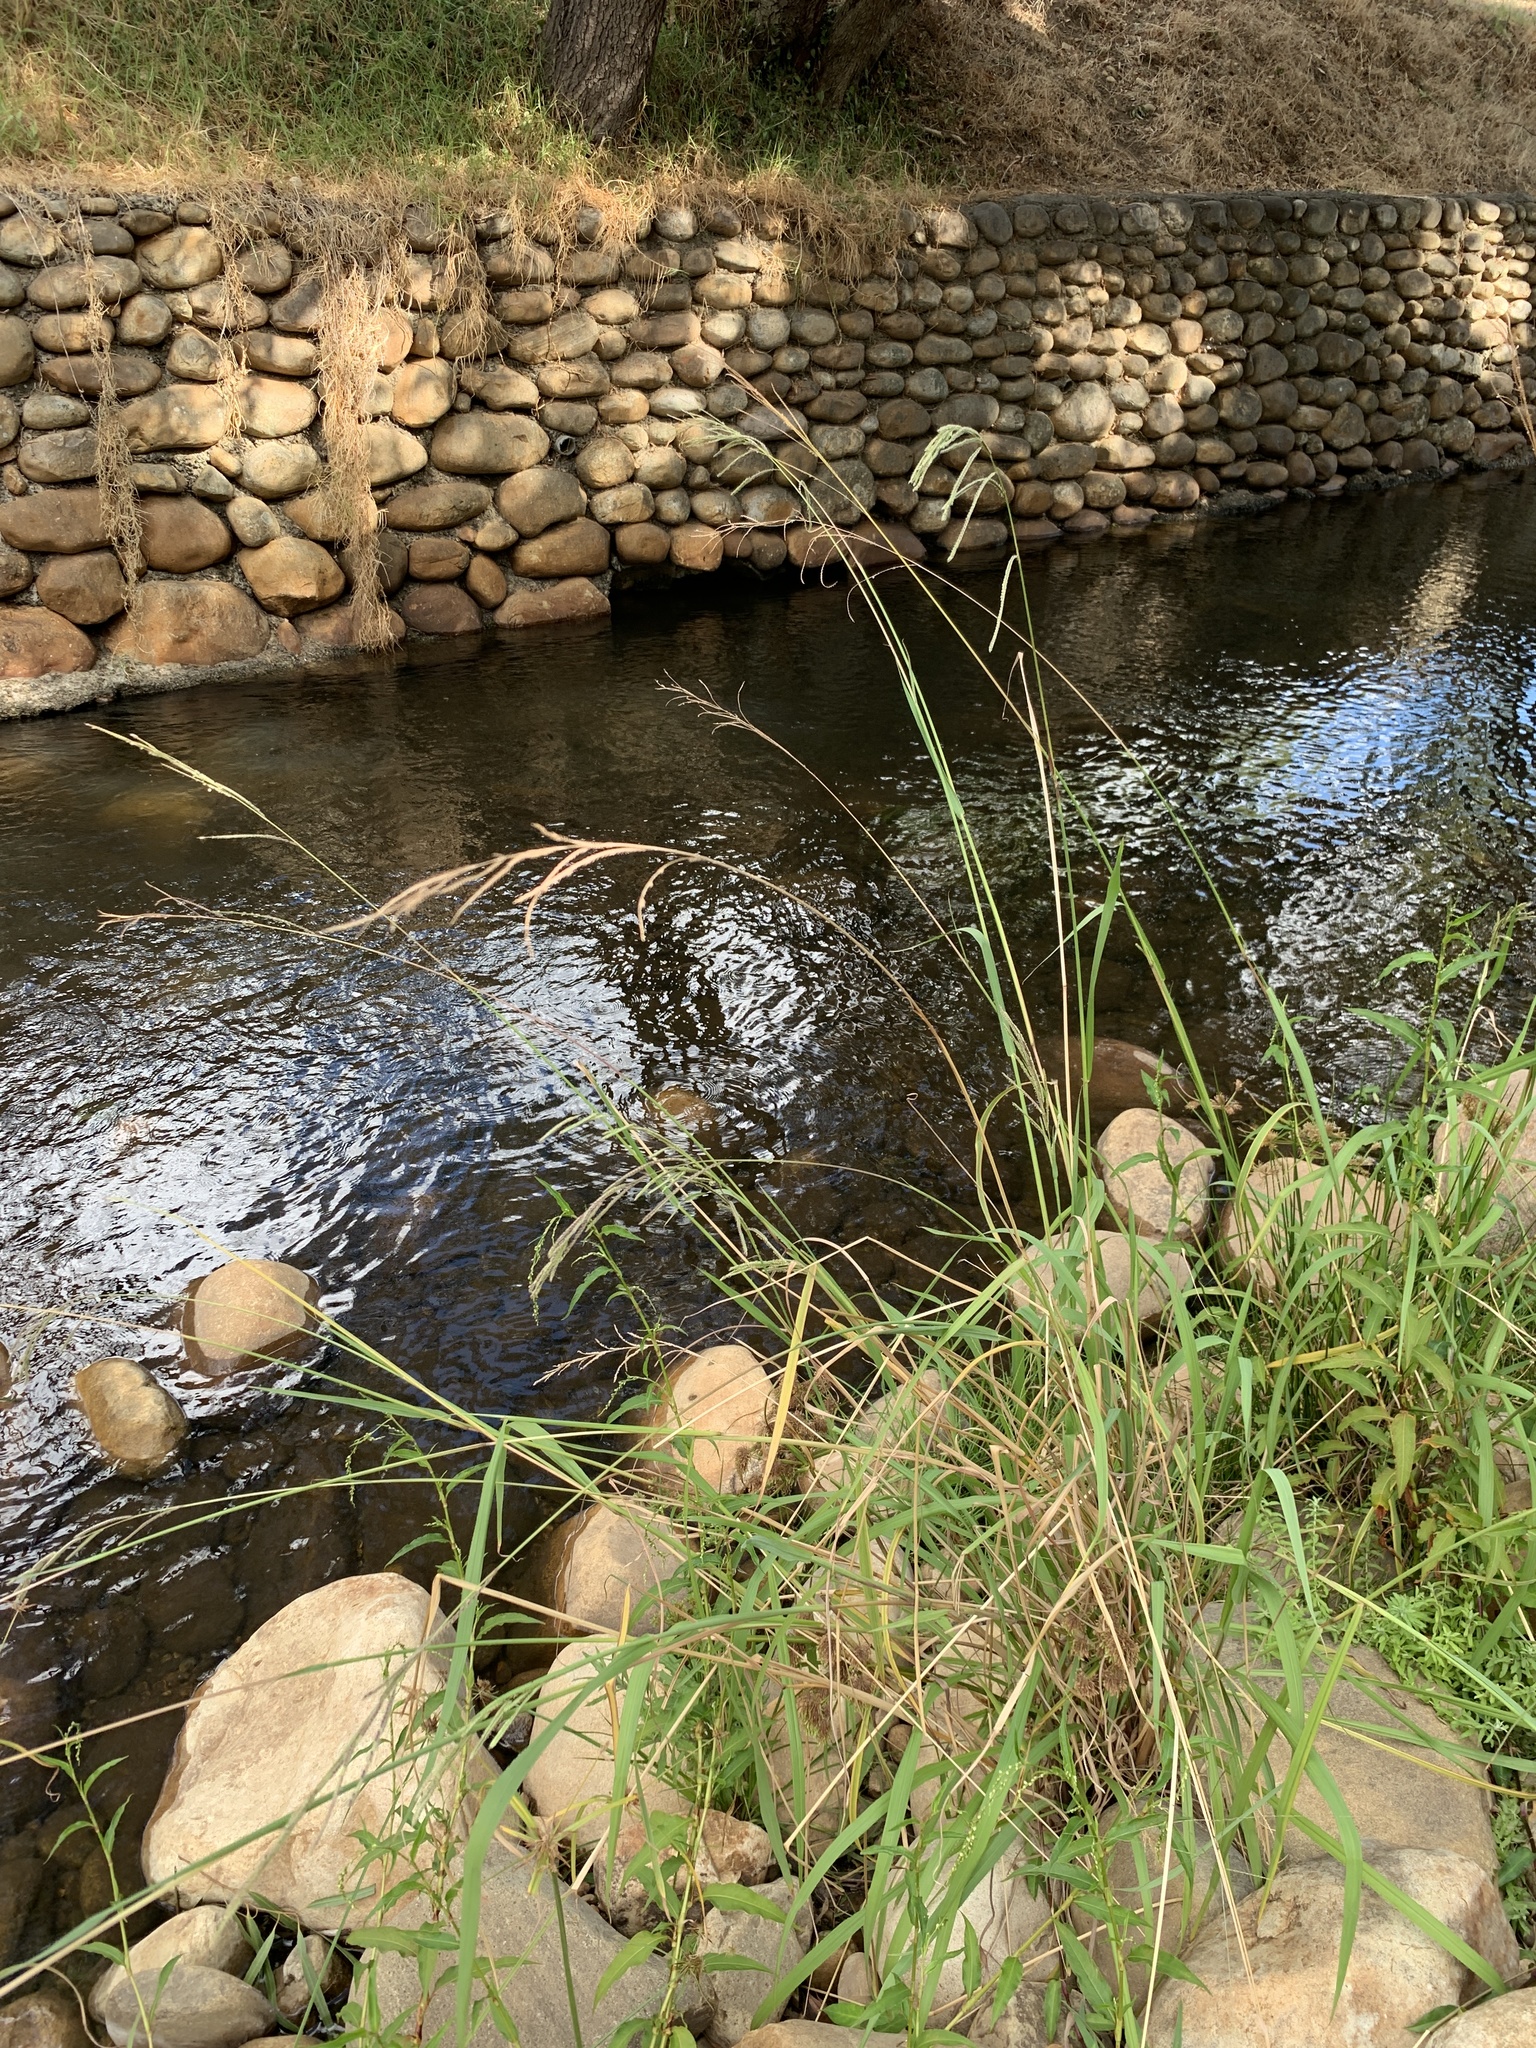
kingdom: Plantae
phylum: Tracheophyta
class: Liliopsida
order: Poales
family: Poaceae
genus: Paspalum
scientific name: Paspalum urvillei
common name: Vasey's grass
